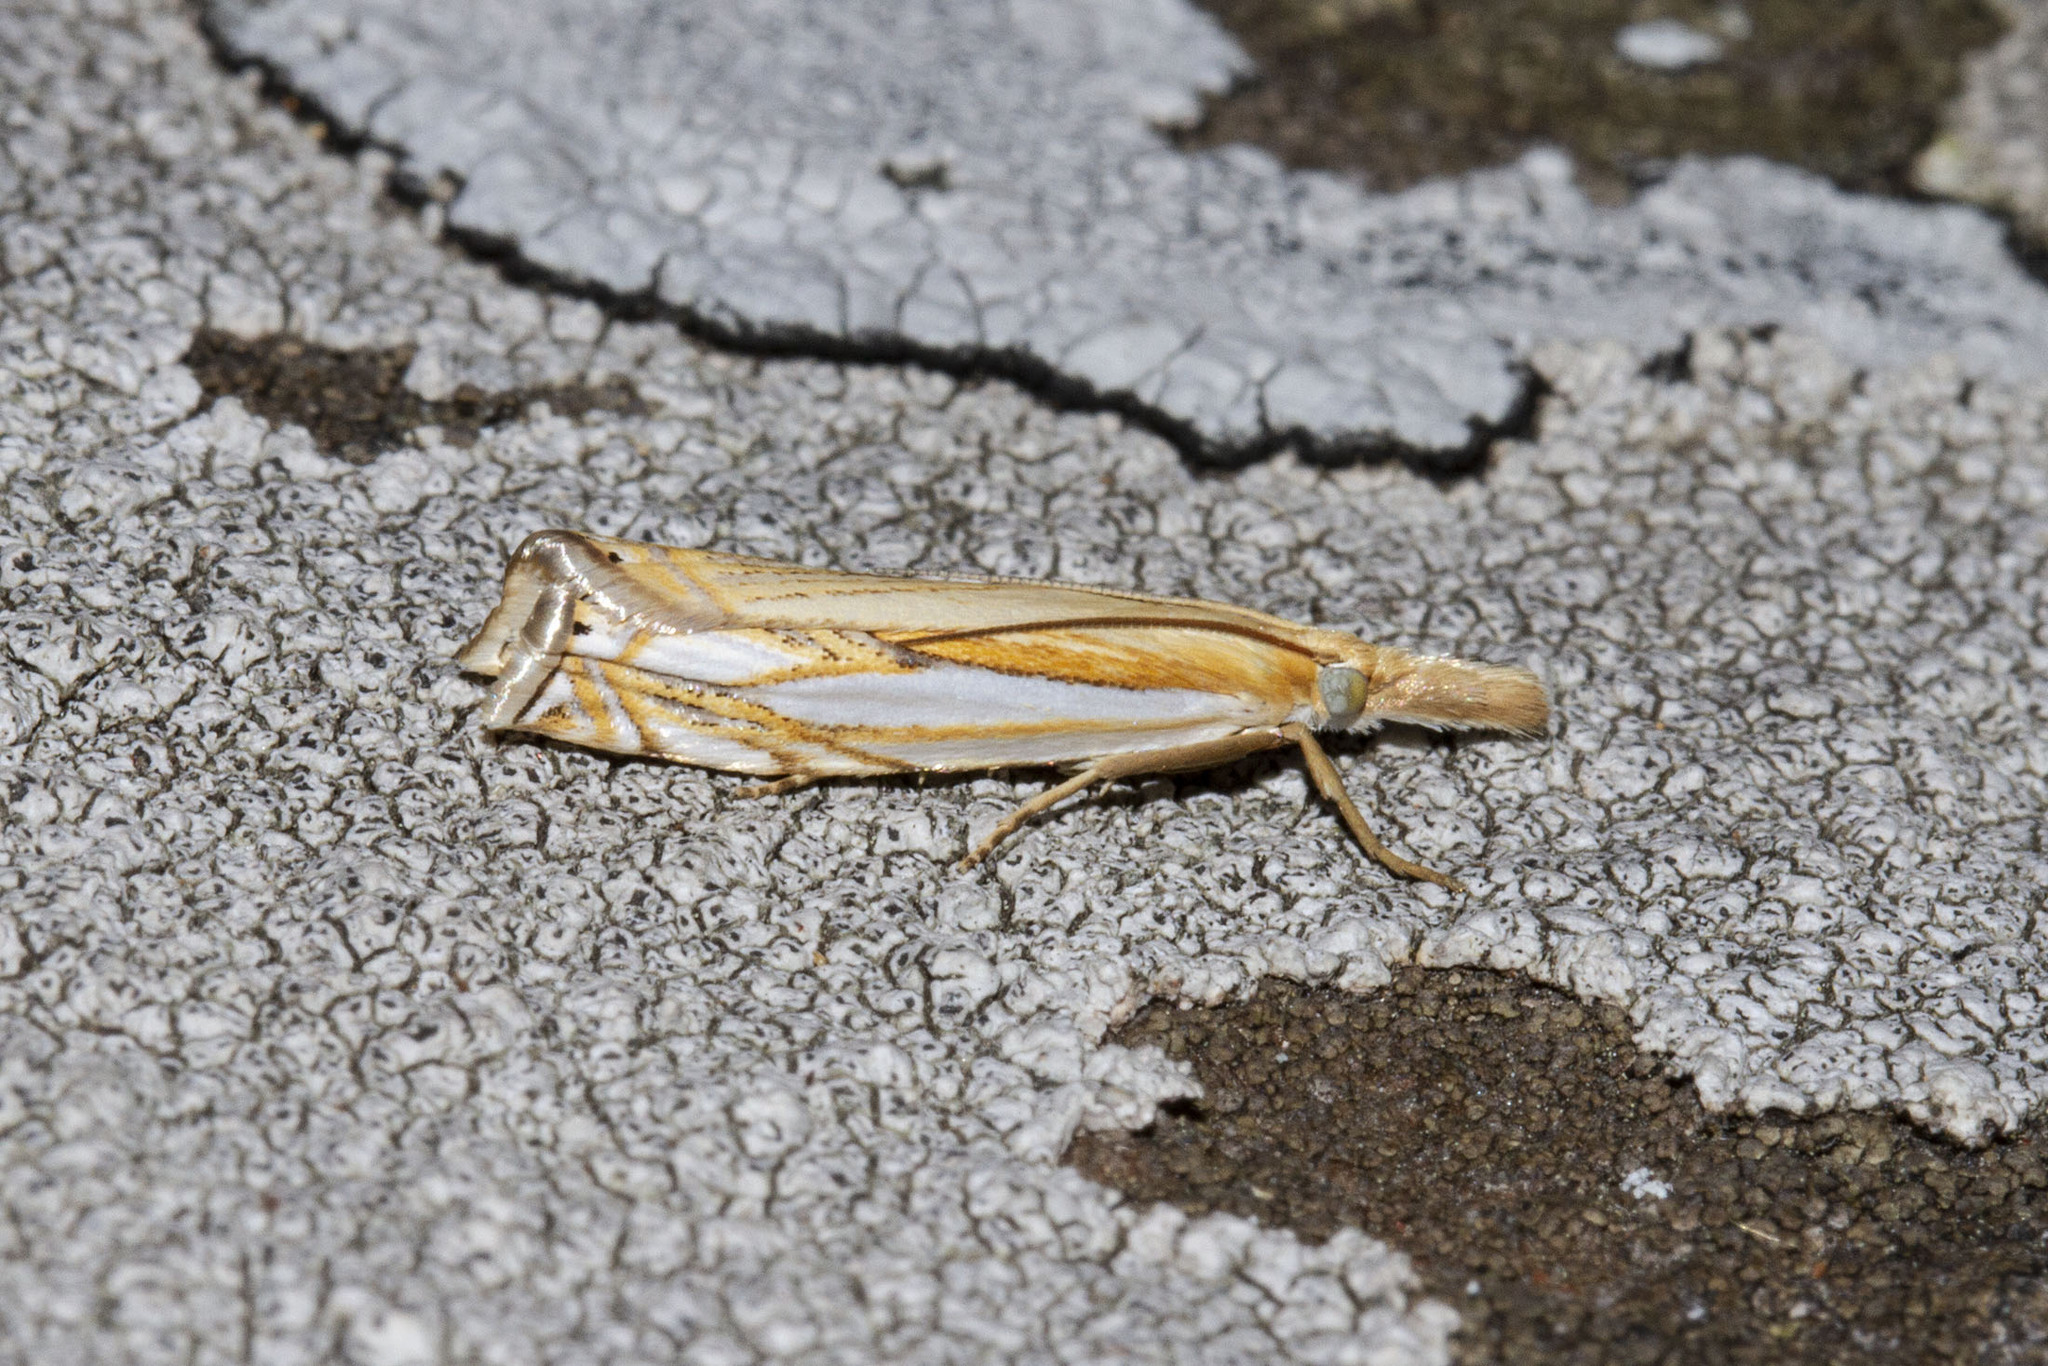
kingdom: Animalia
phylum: Arthropoda
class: Insecta
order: Lepidoptera
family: Crambidae
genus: Crambus
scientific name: Crambus agitatellus
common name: Double-banded grass-veneer
